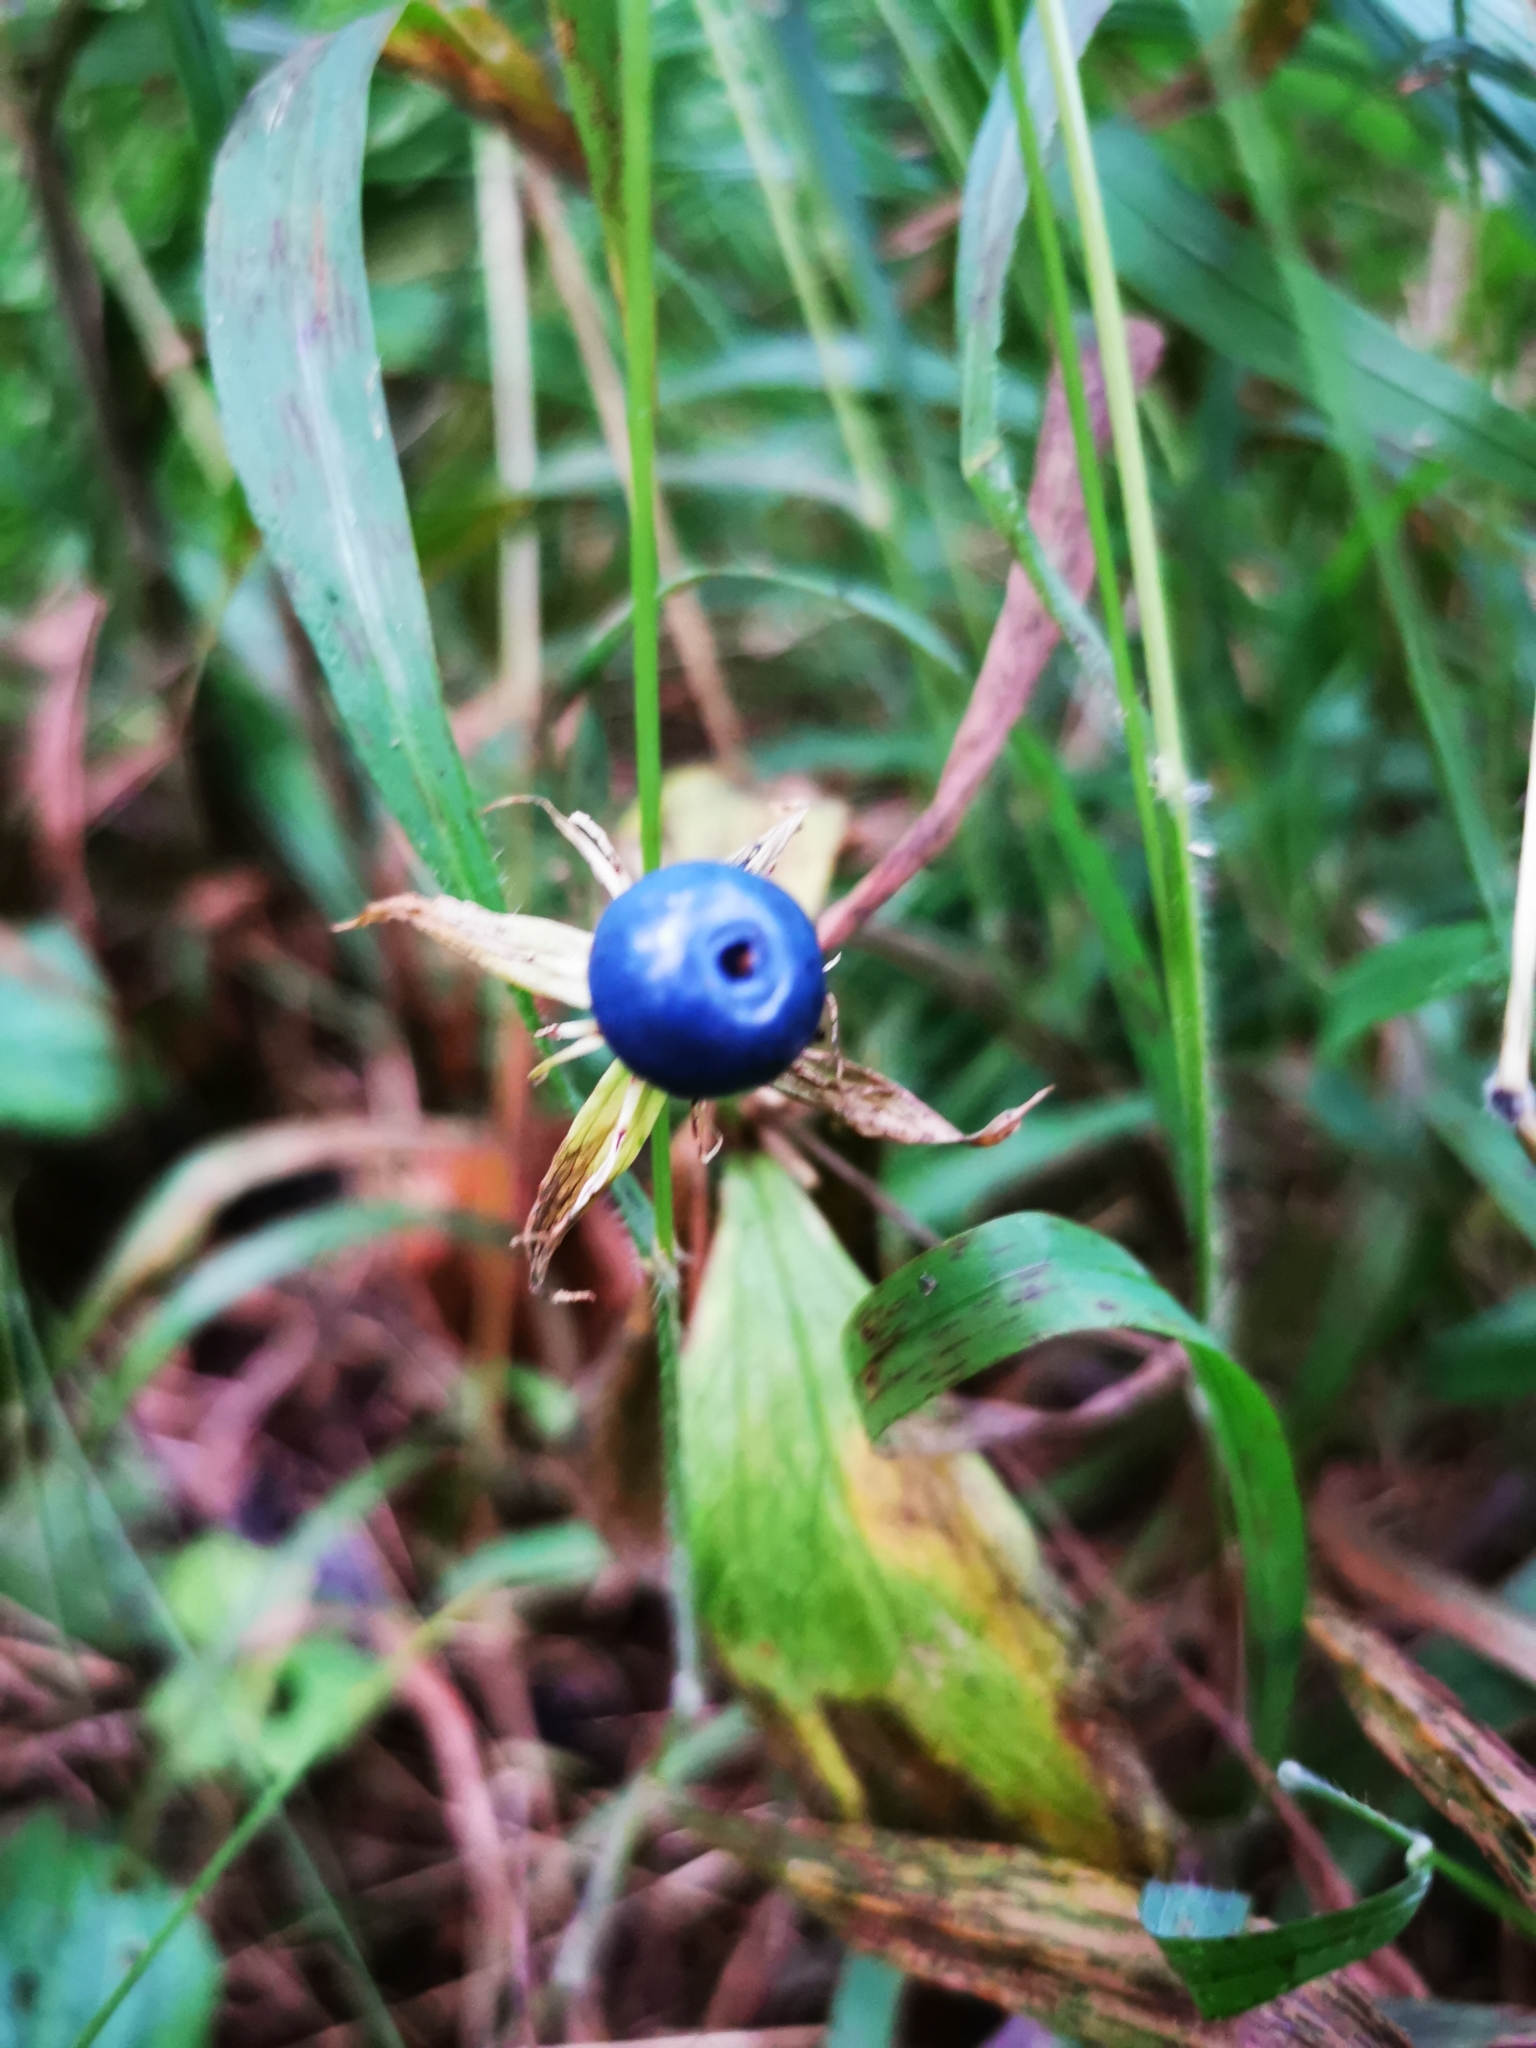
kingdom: Plantae
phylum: Tracheophyta
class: Liliopsida
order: Liliales
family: Melanthiaceae
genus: Paris
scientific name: Paris quadrifolia
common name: Herb-paris
